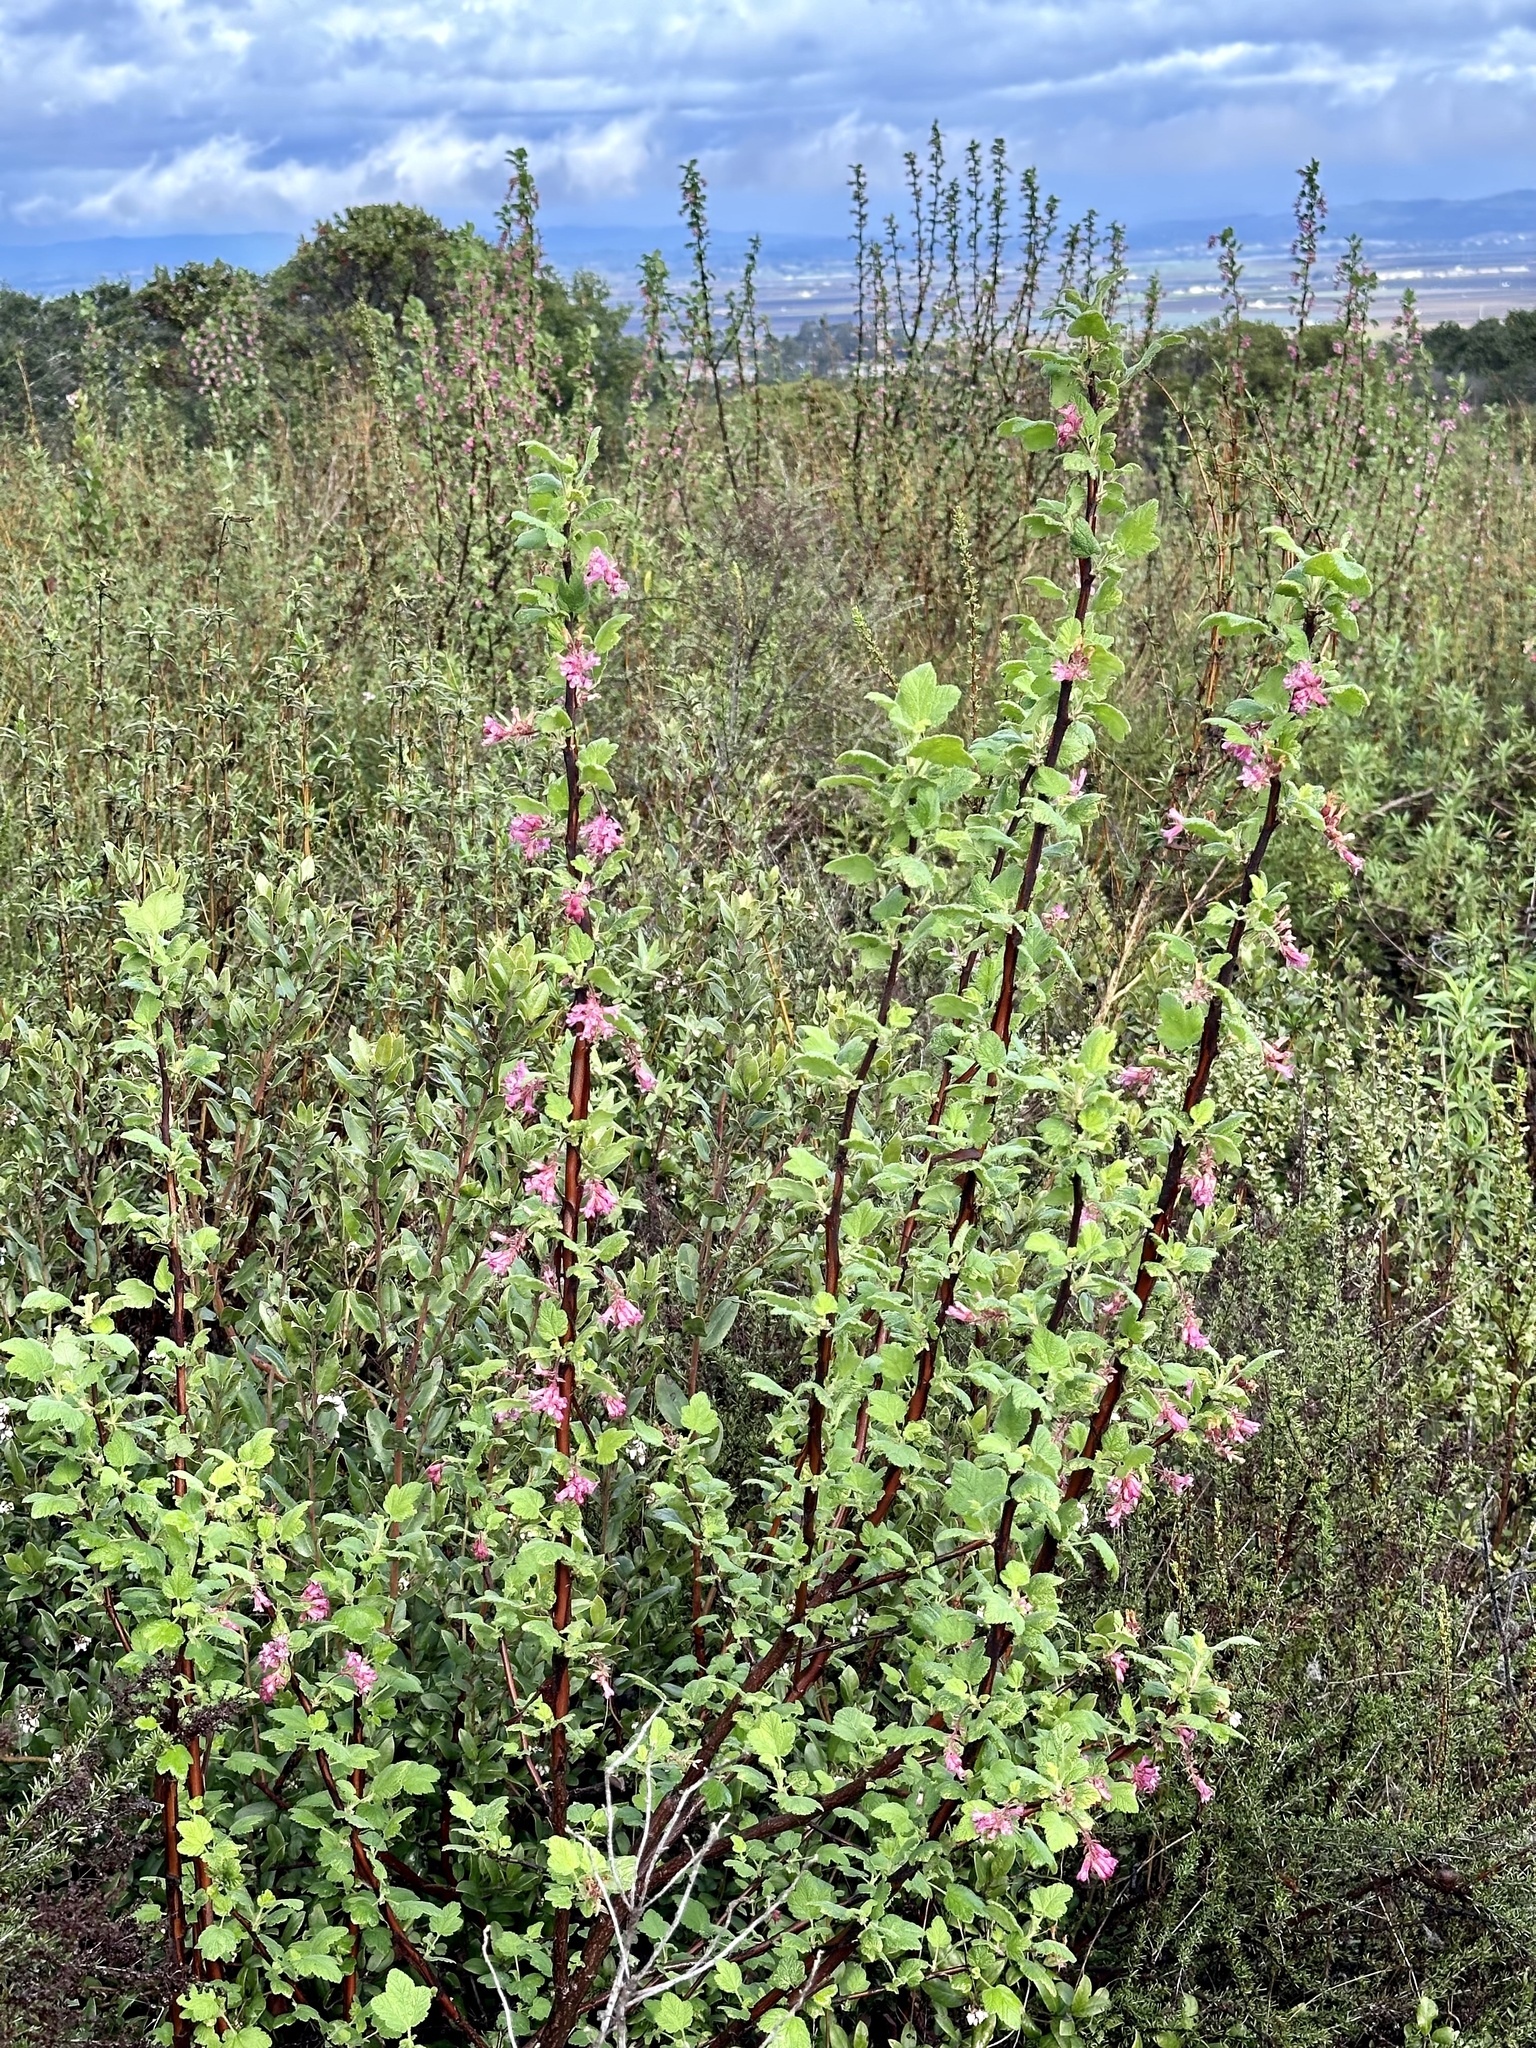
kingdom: Plantae
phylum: Tracheophyta
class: Magnoliopsida
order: Saxifragales
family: Grossulariaceae
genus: Ribes
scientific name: Ribes malvaceum
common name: Chaparral currant
